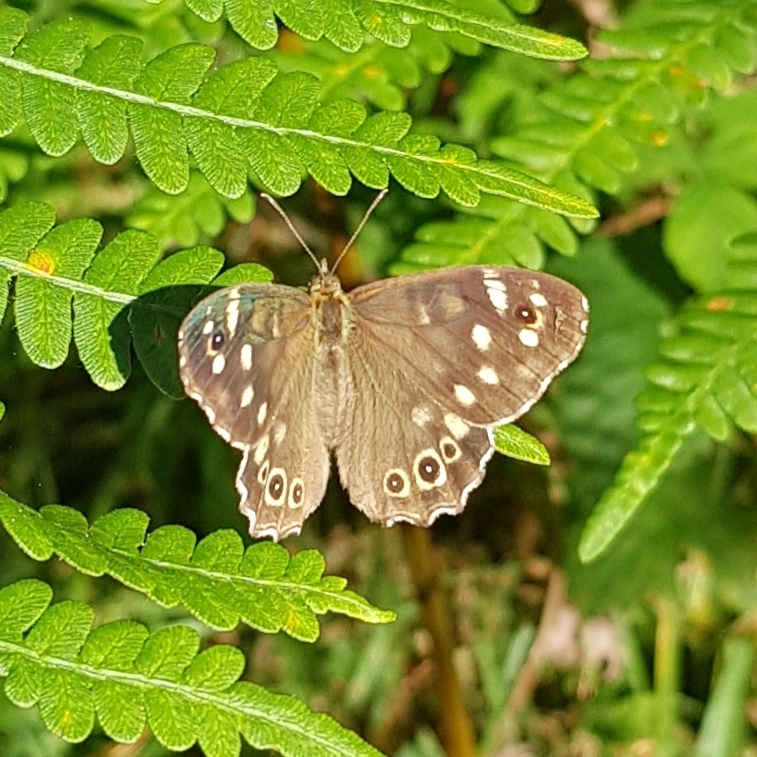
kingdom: Animalia
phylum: Arthropoda
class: Insecta
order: Lepidoptera
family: Nymphalidae
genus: Pararge
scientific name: Pararge aegeria
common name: Speckled wood
